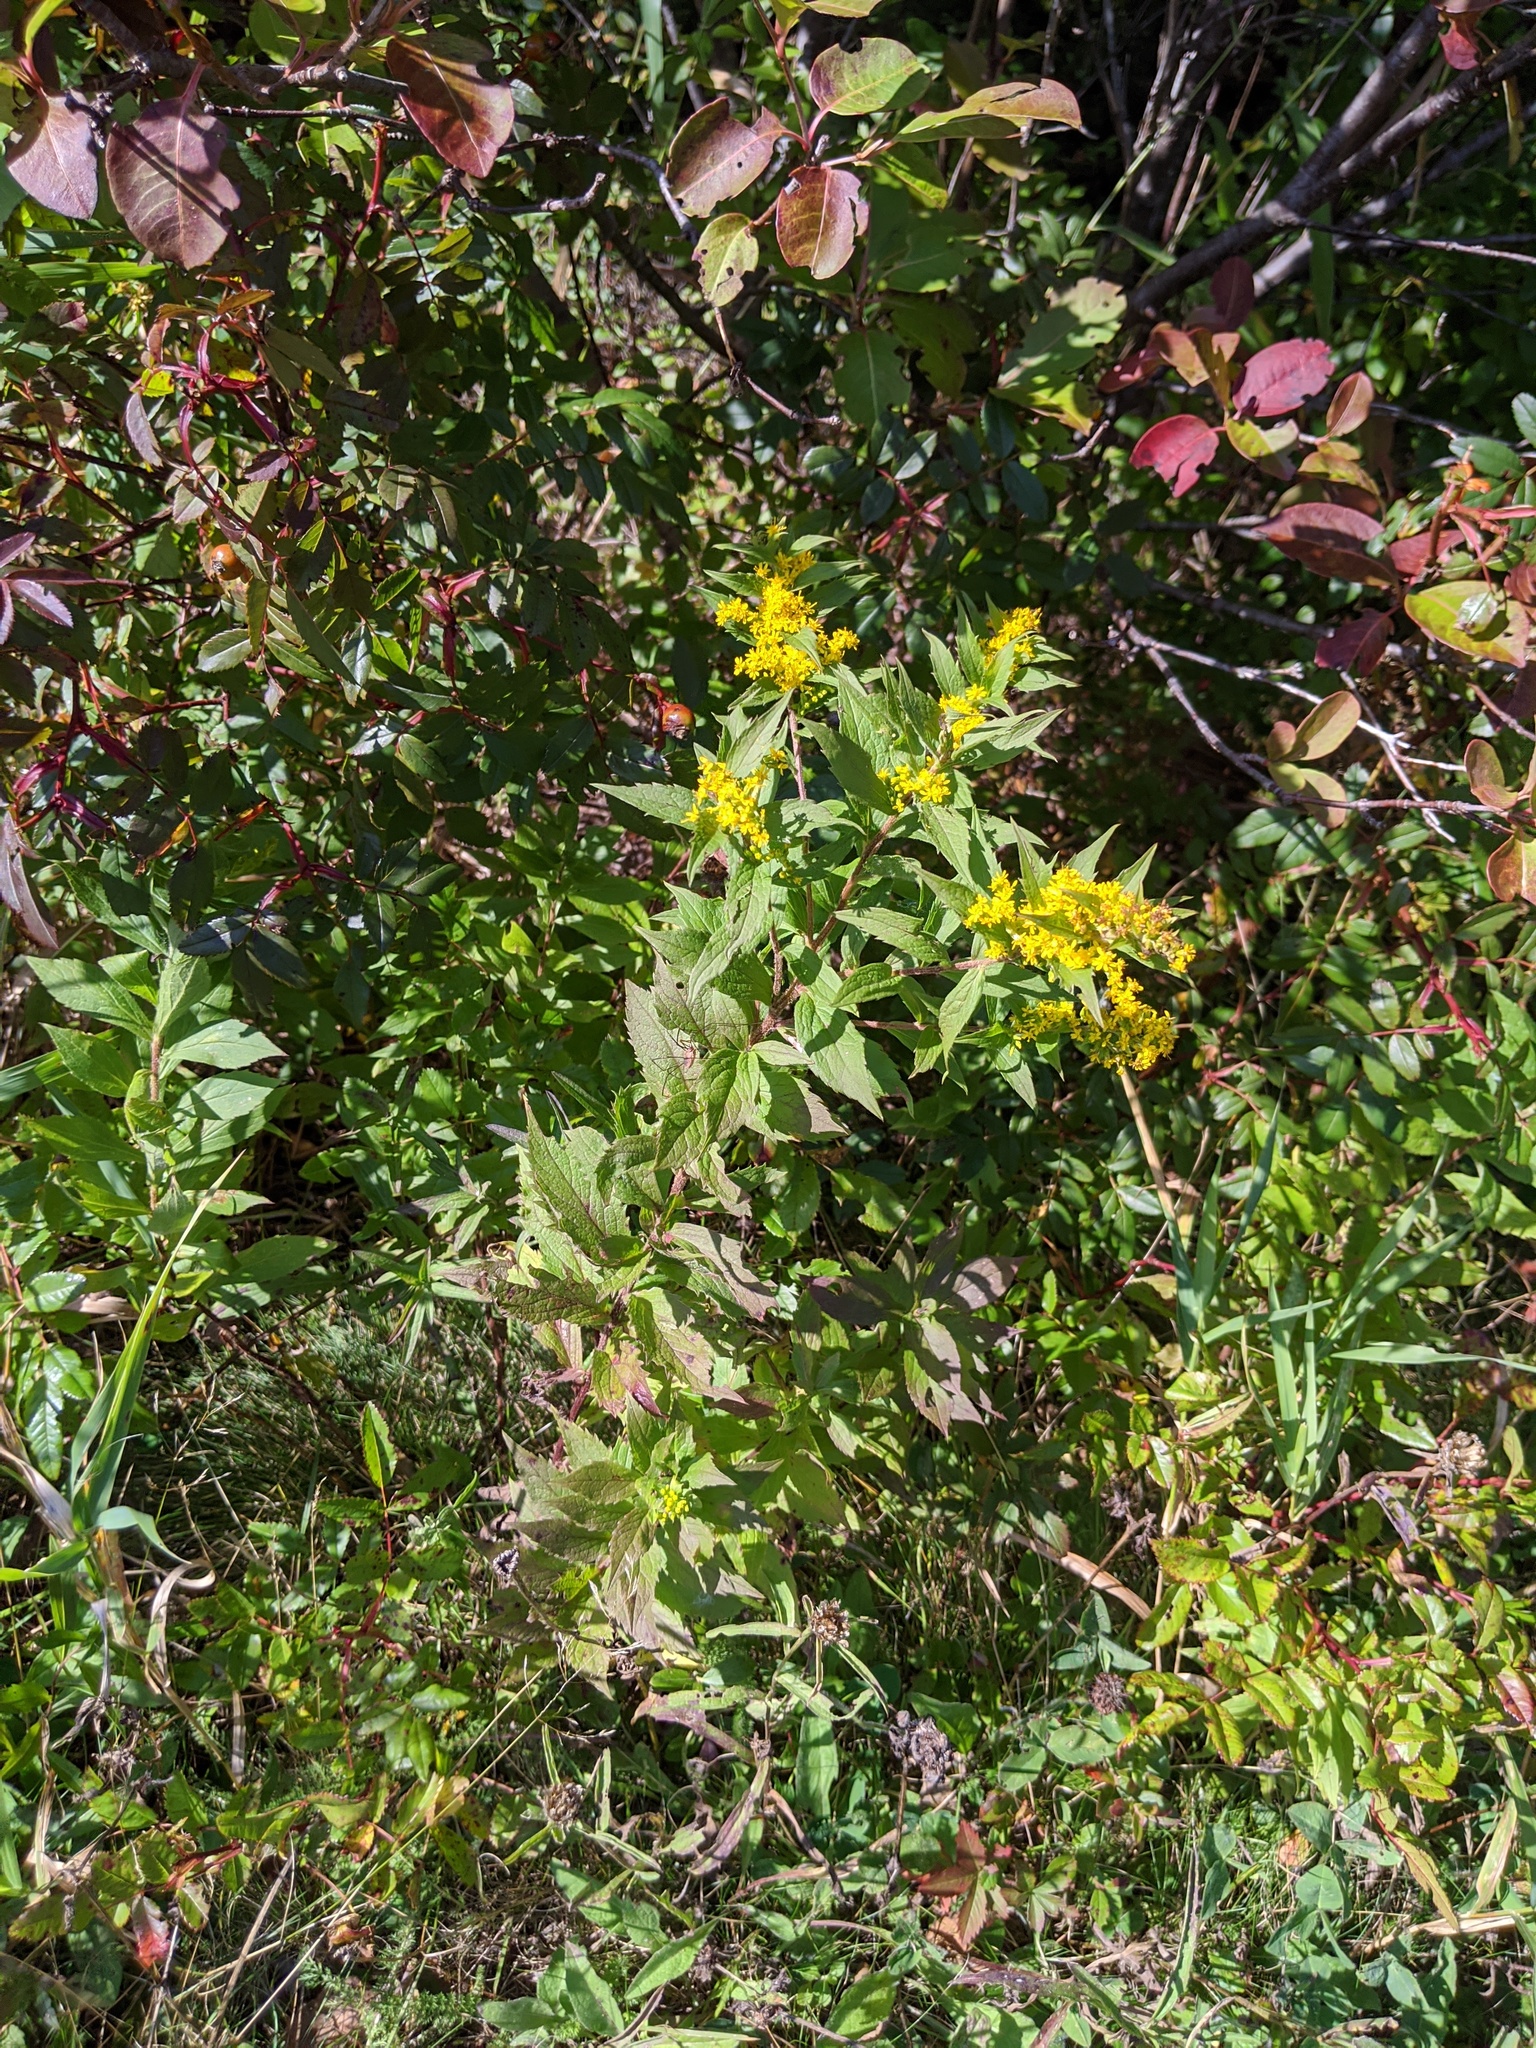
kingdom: Plantae
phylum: Tracheophyta
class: Magnoliopsida
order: Asterales
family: Asteraceae
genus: Solidago
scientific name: Solidago rugosa
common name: Rough-stemmed goldenrod
